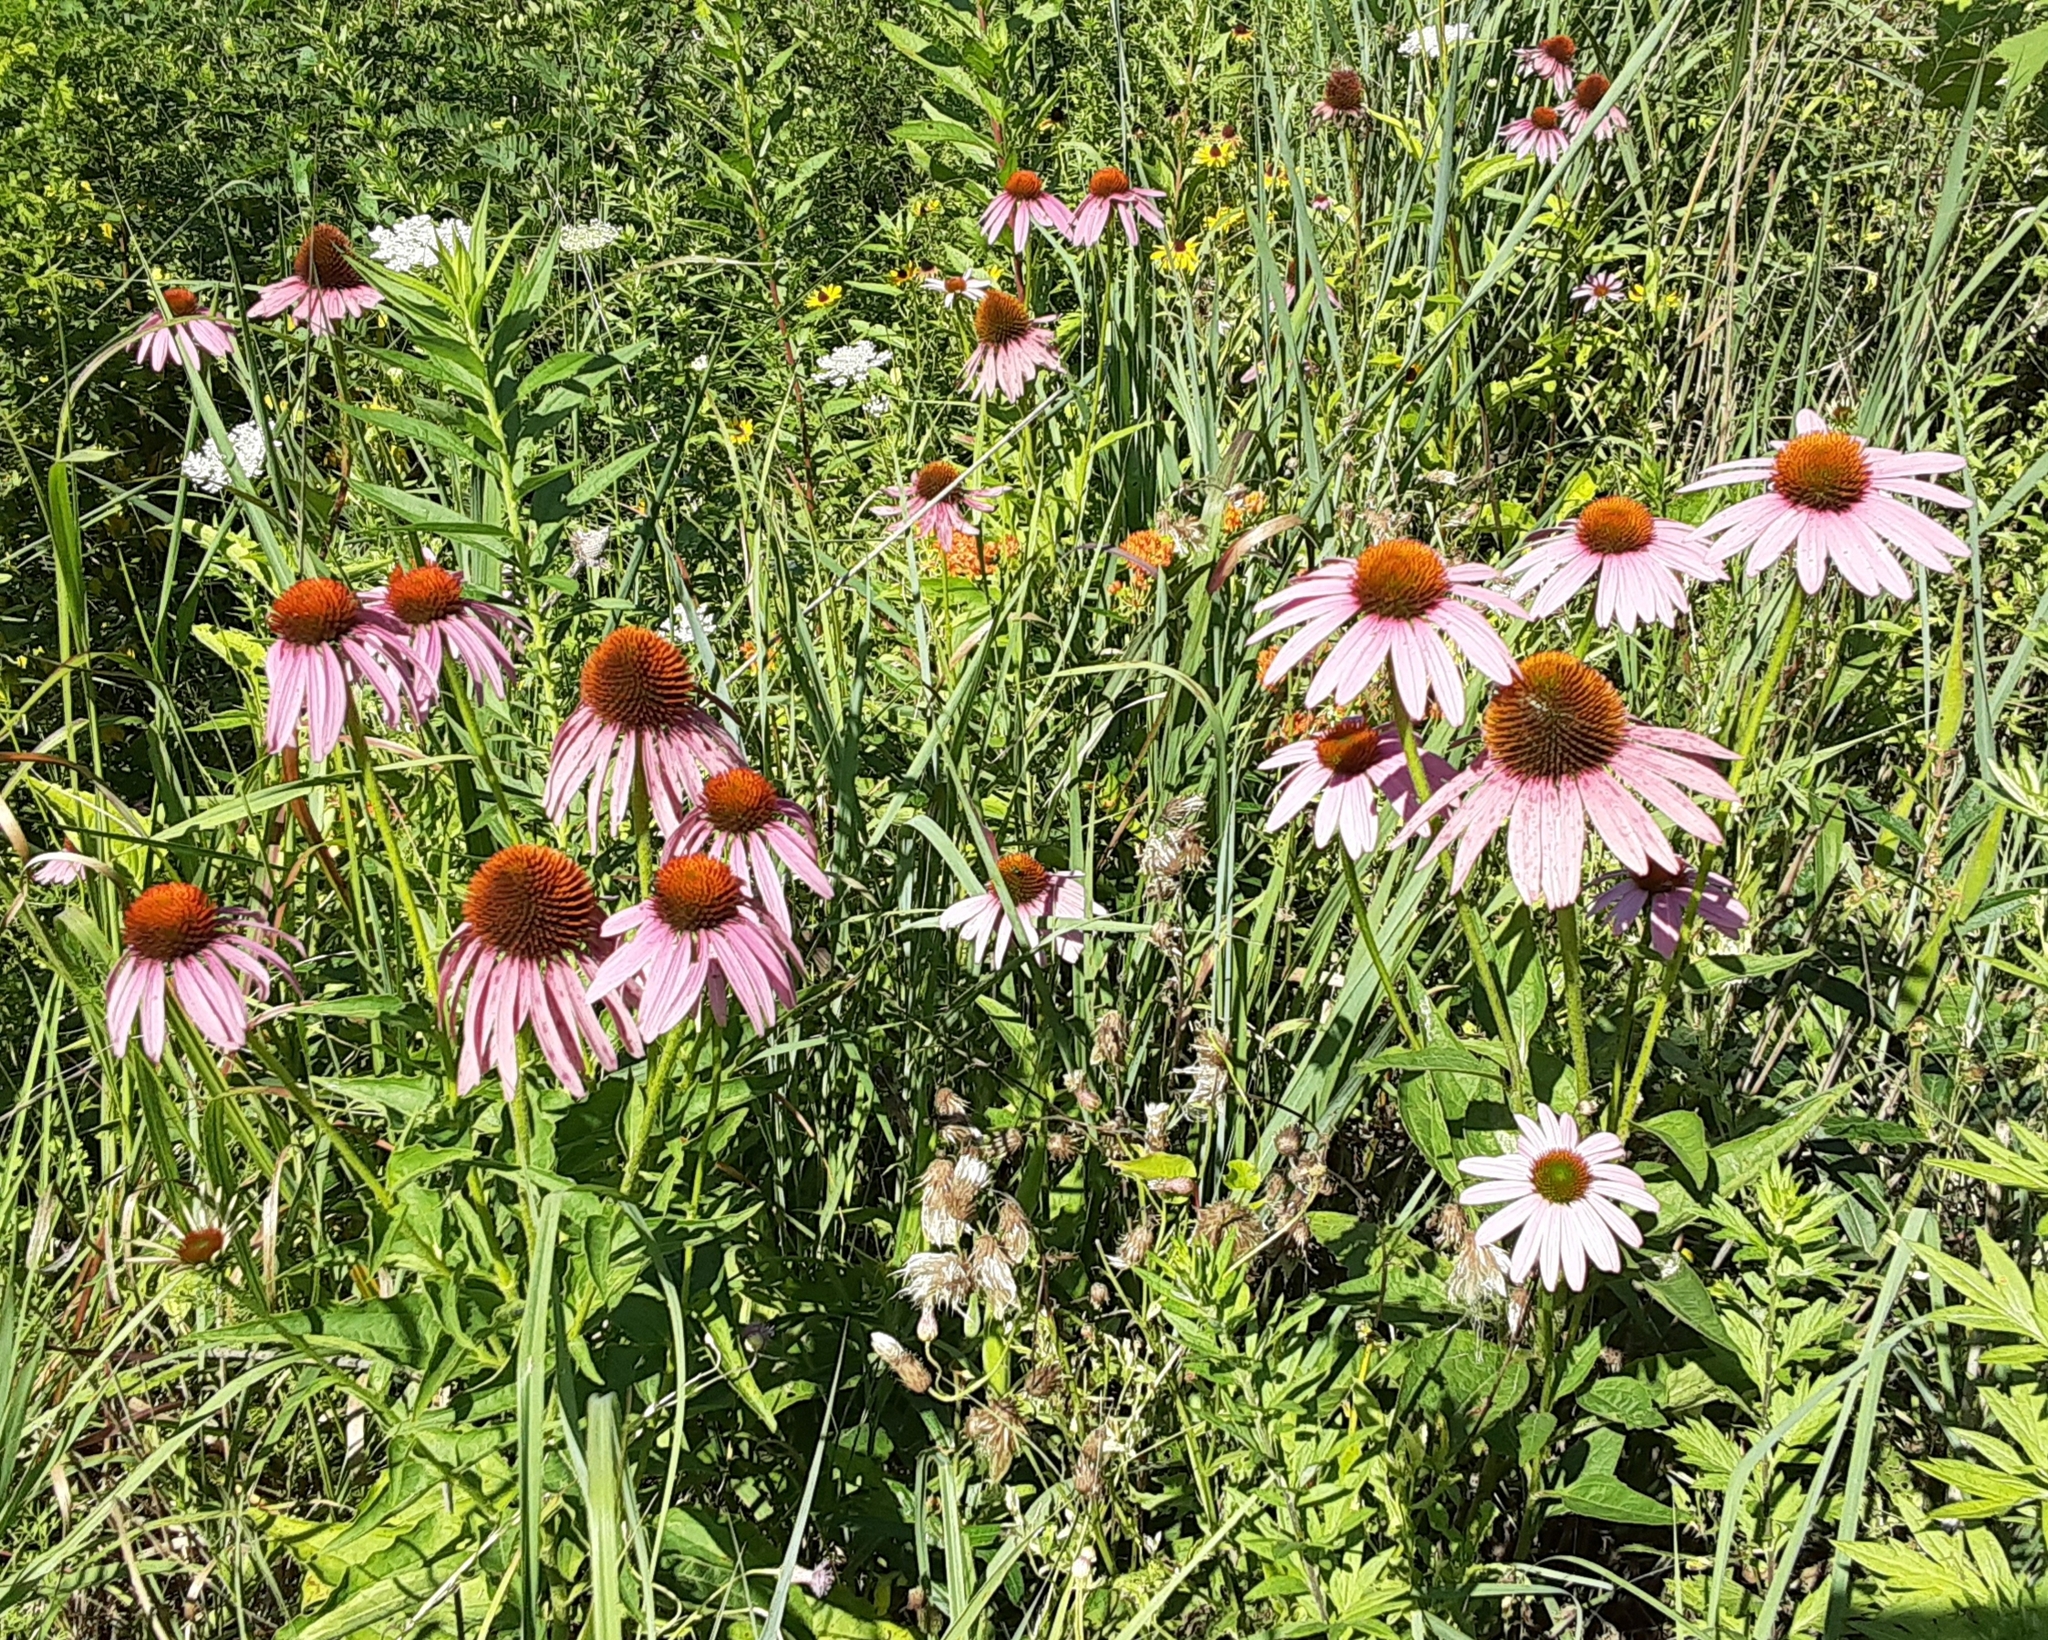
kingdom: Plantae
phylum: Tracheophyta
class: Magnoliopsida
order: Asterales
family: Asteraceae
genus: Echinacea
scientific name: Echinacea purpurea
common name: Broad-leaved purple coneflower
